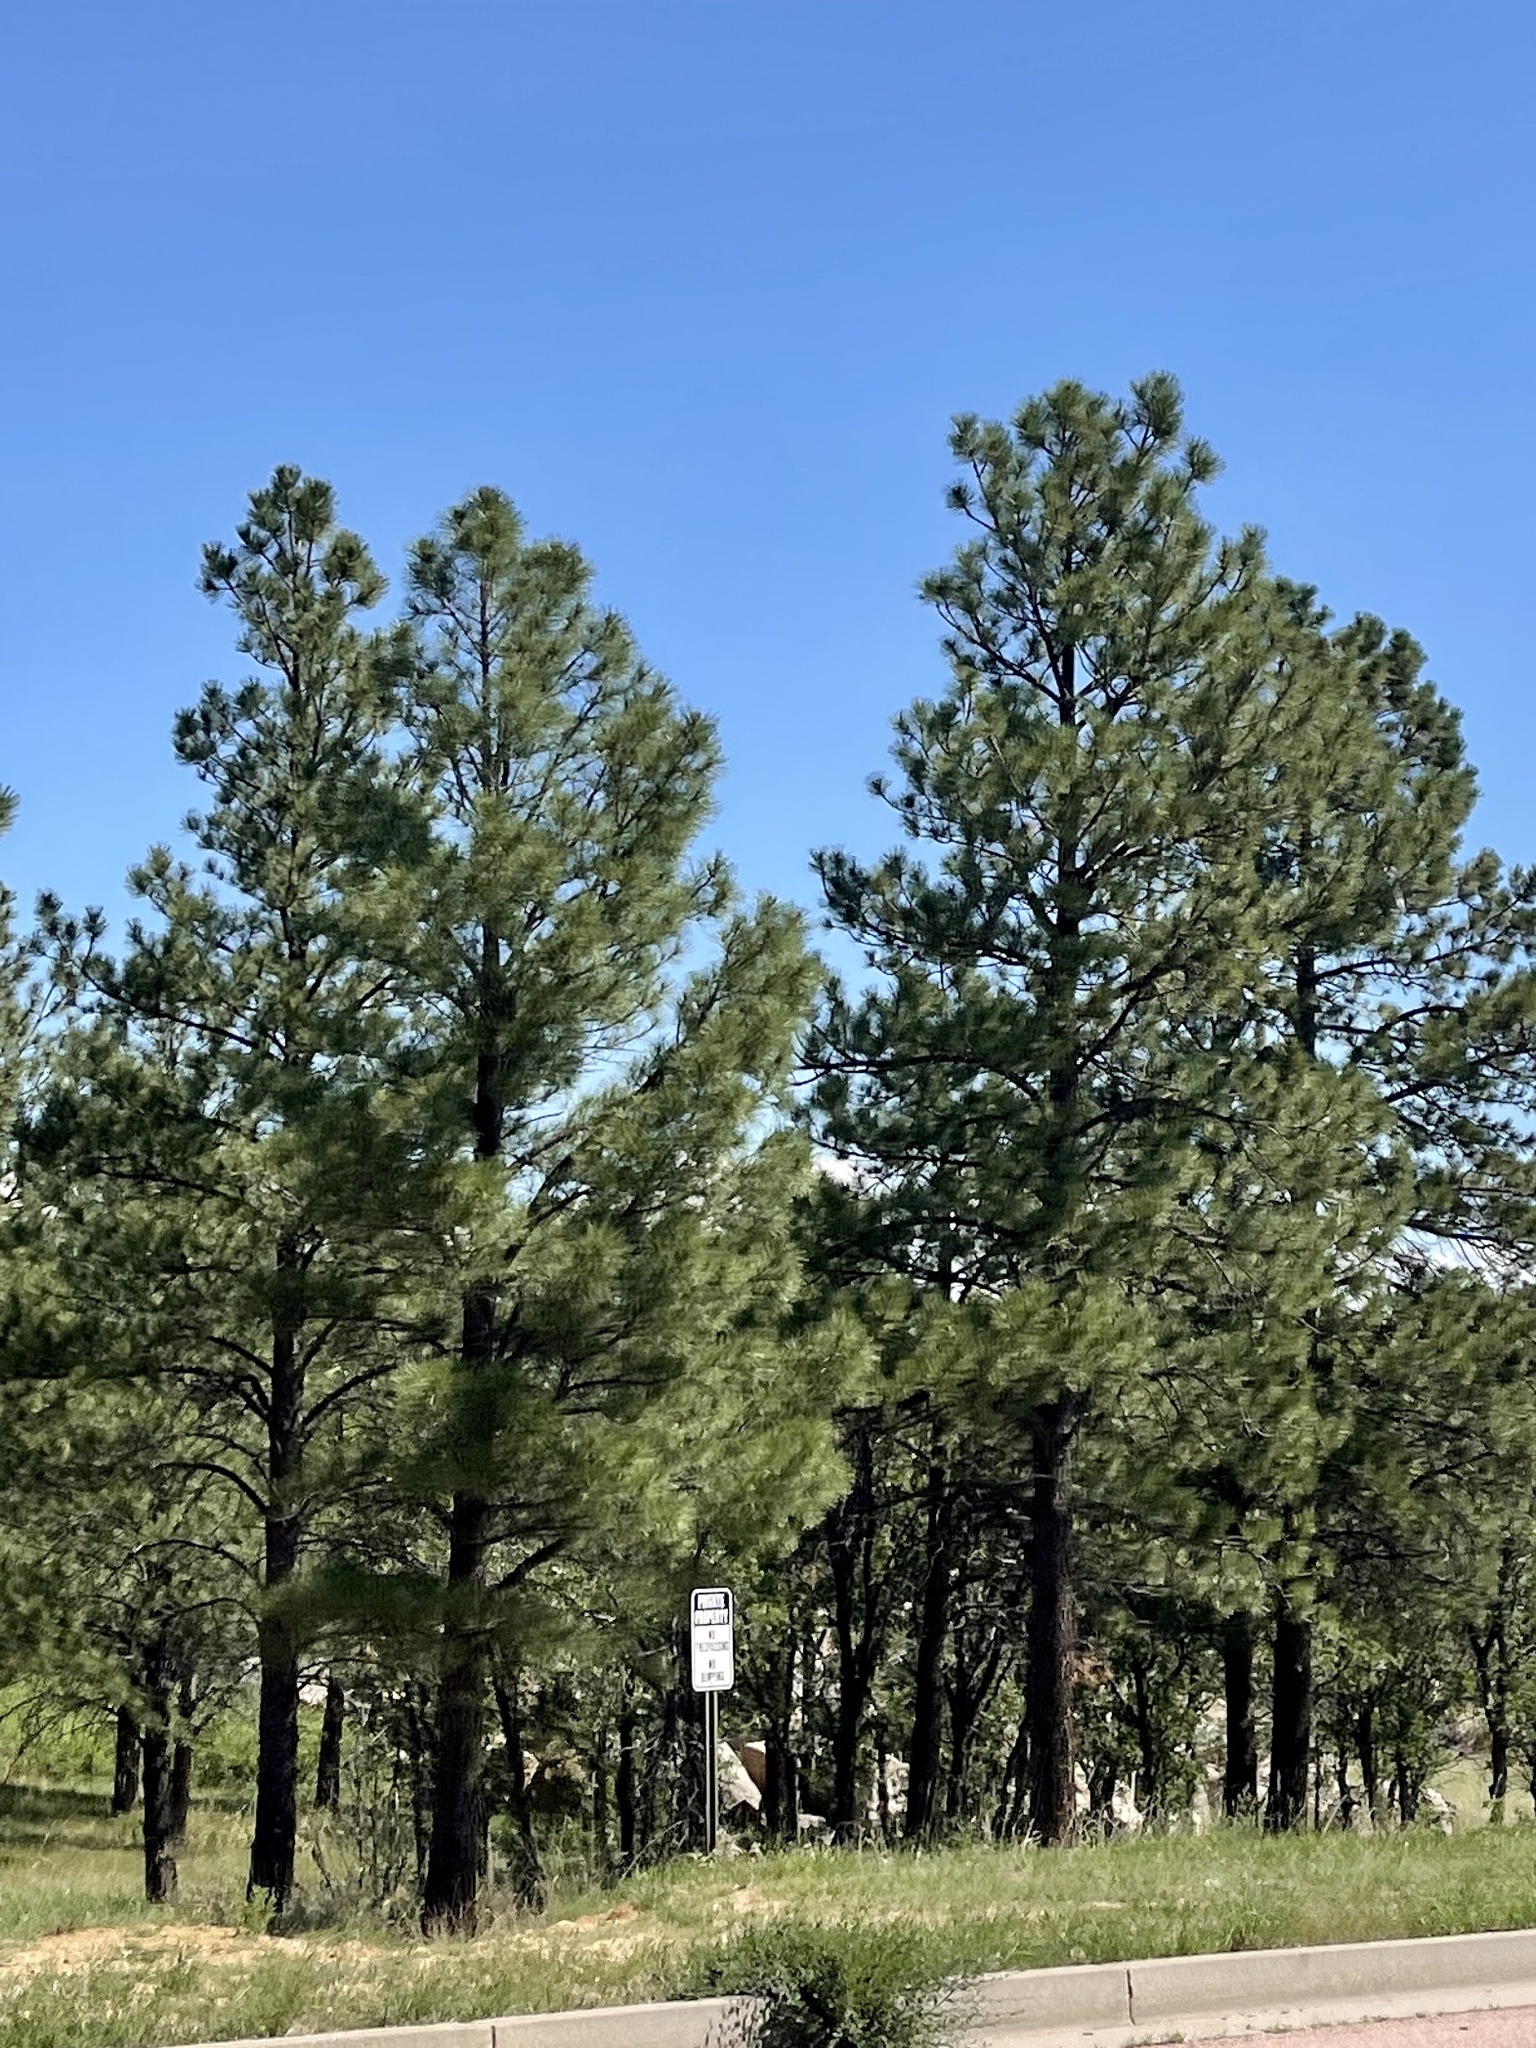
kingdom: Plantae
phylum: Tracheophyta
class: Pinopsida
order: Pinales
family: Pinaceae
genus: Pinus
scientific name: Pinus ponderosa
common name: Western yellow-pine
